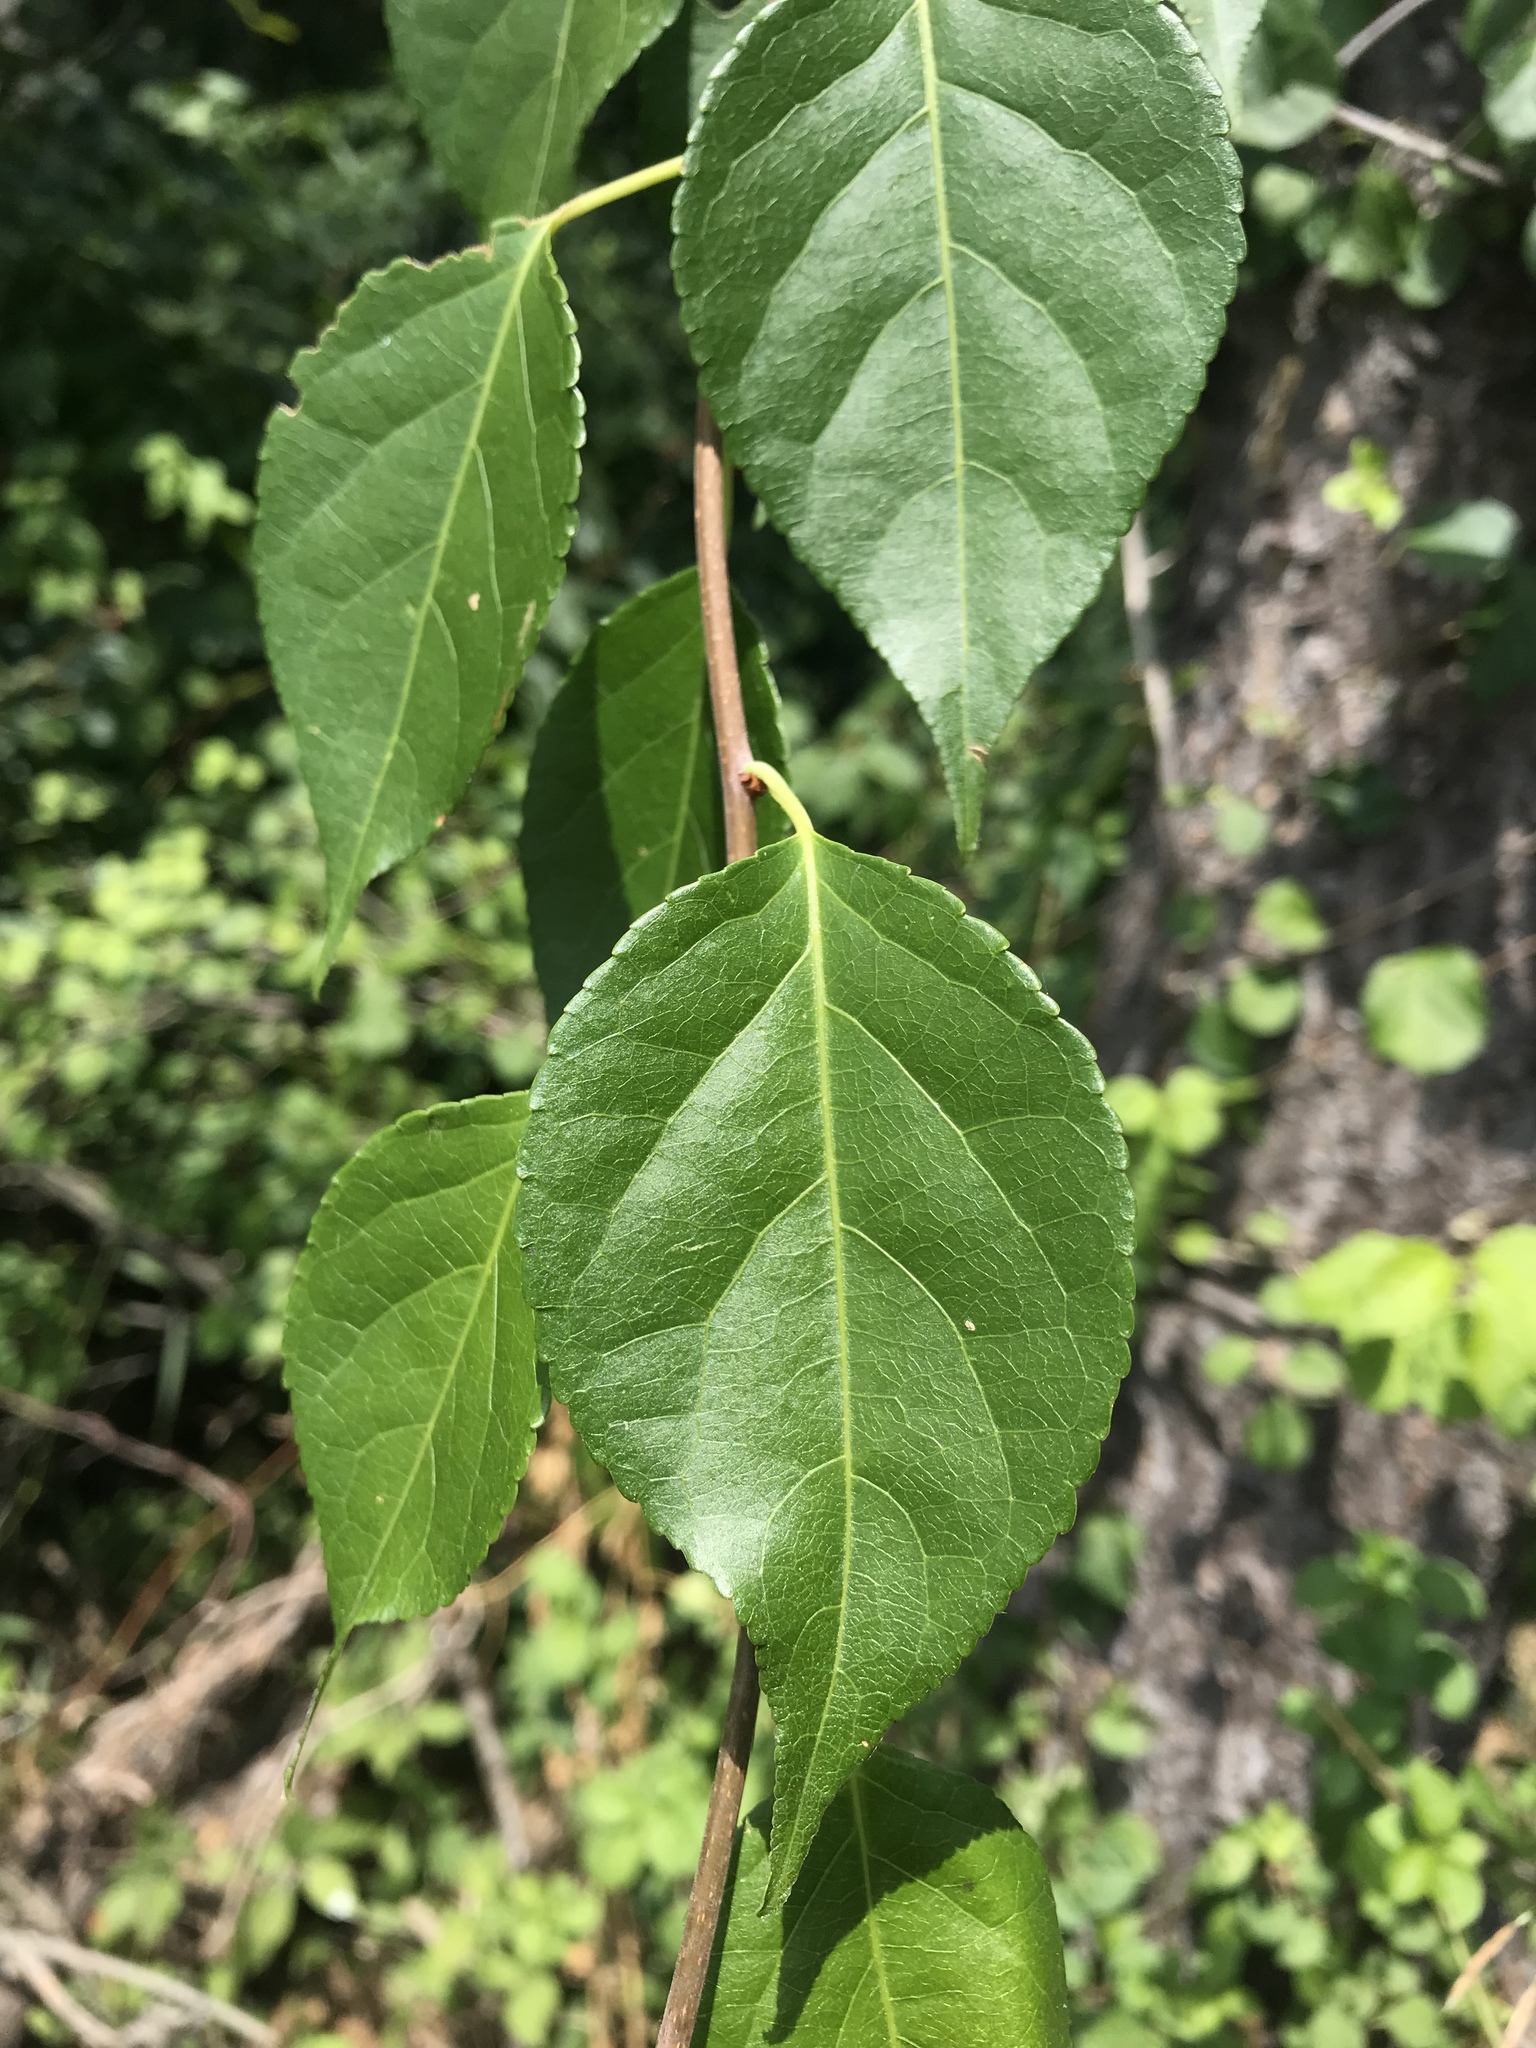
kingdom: Plantae
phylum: Tracheophyta
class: Magnoliopsida
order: Celastrales
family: Celastraceae
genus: Celastrus
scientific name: Celastrus orbiculatus
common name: Oriental bittersweet
